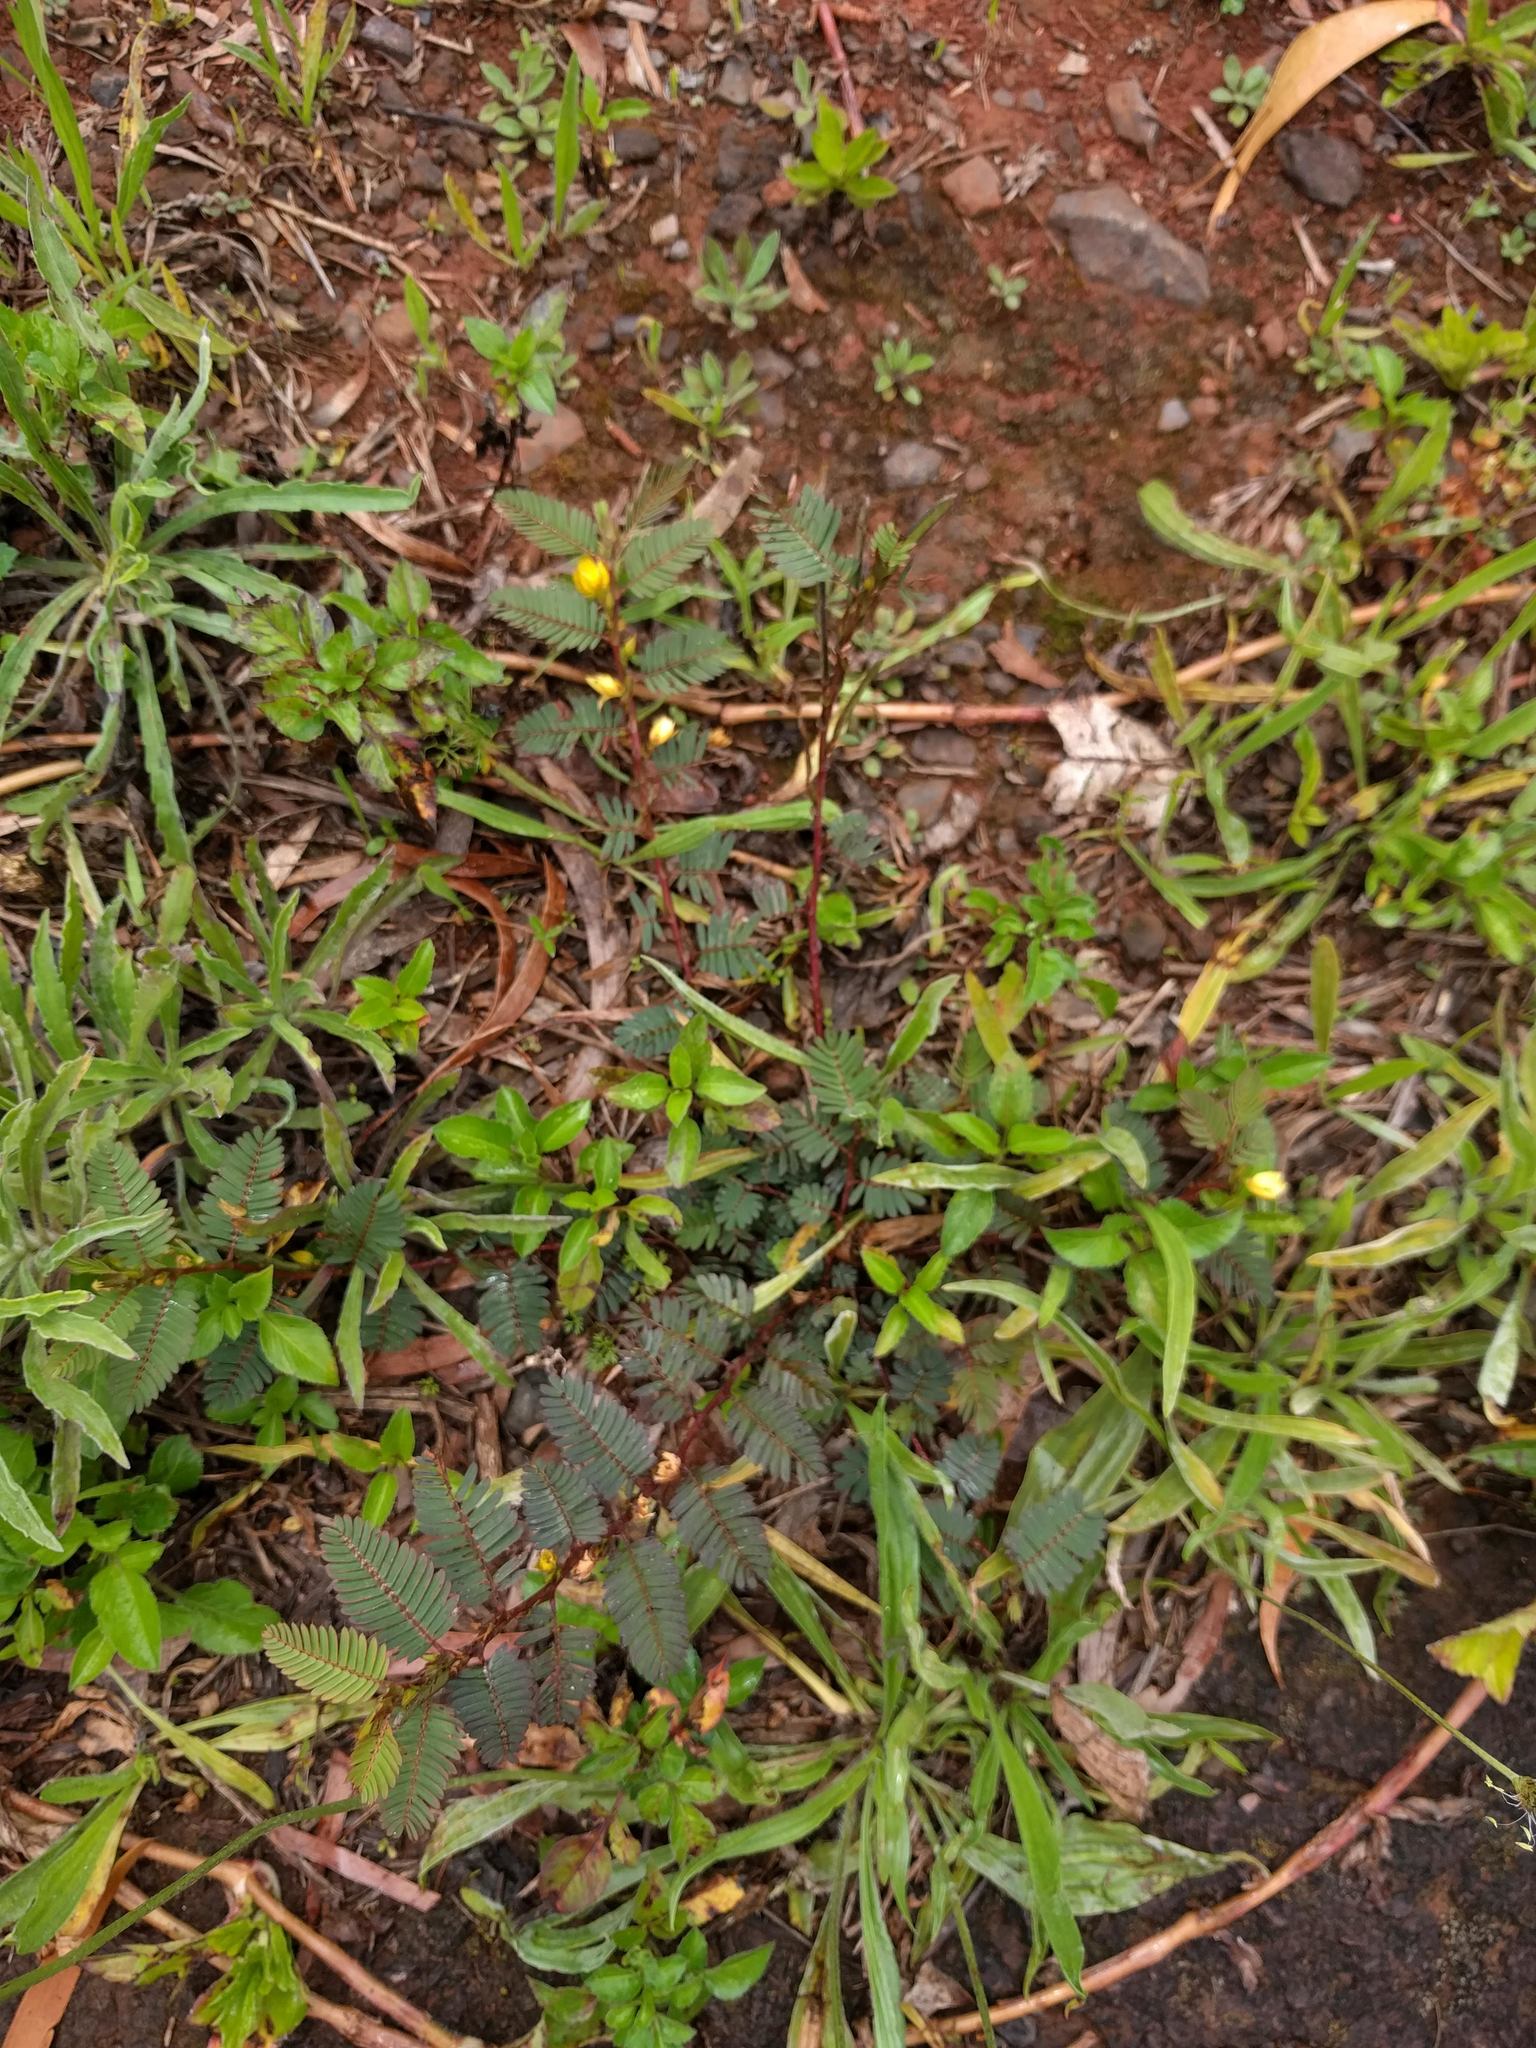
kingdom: Plantae
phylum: Tracheophyta
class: Magnoliopsida
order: Fabales
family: Fabaceae
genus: Chamaecrista
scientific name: Chamaecrista nictitans
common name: Sensitive cassia
